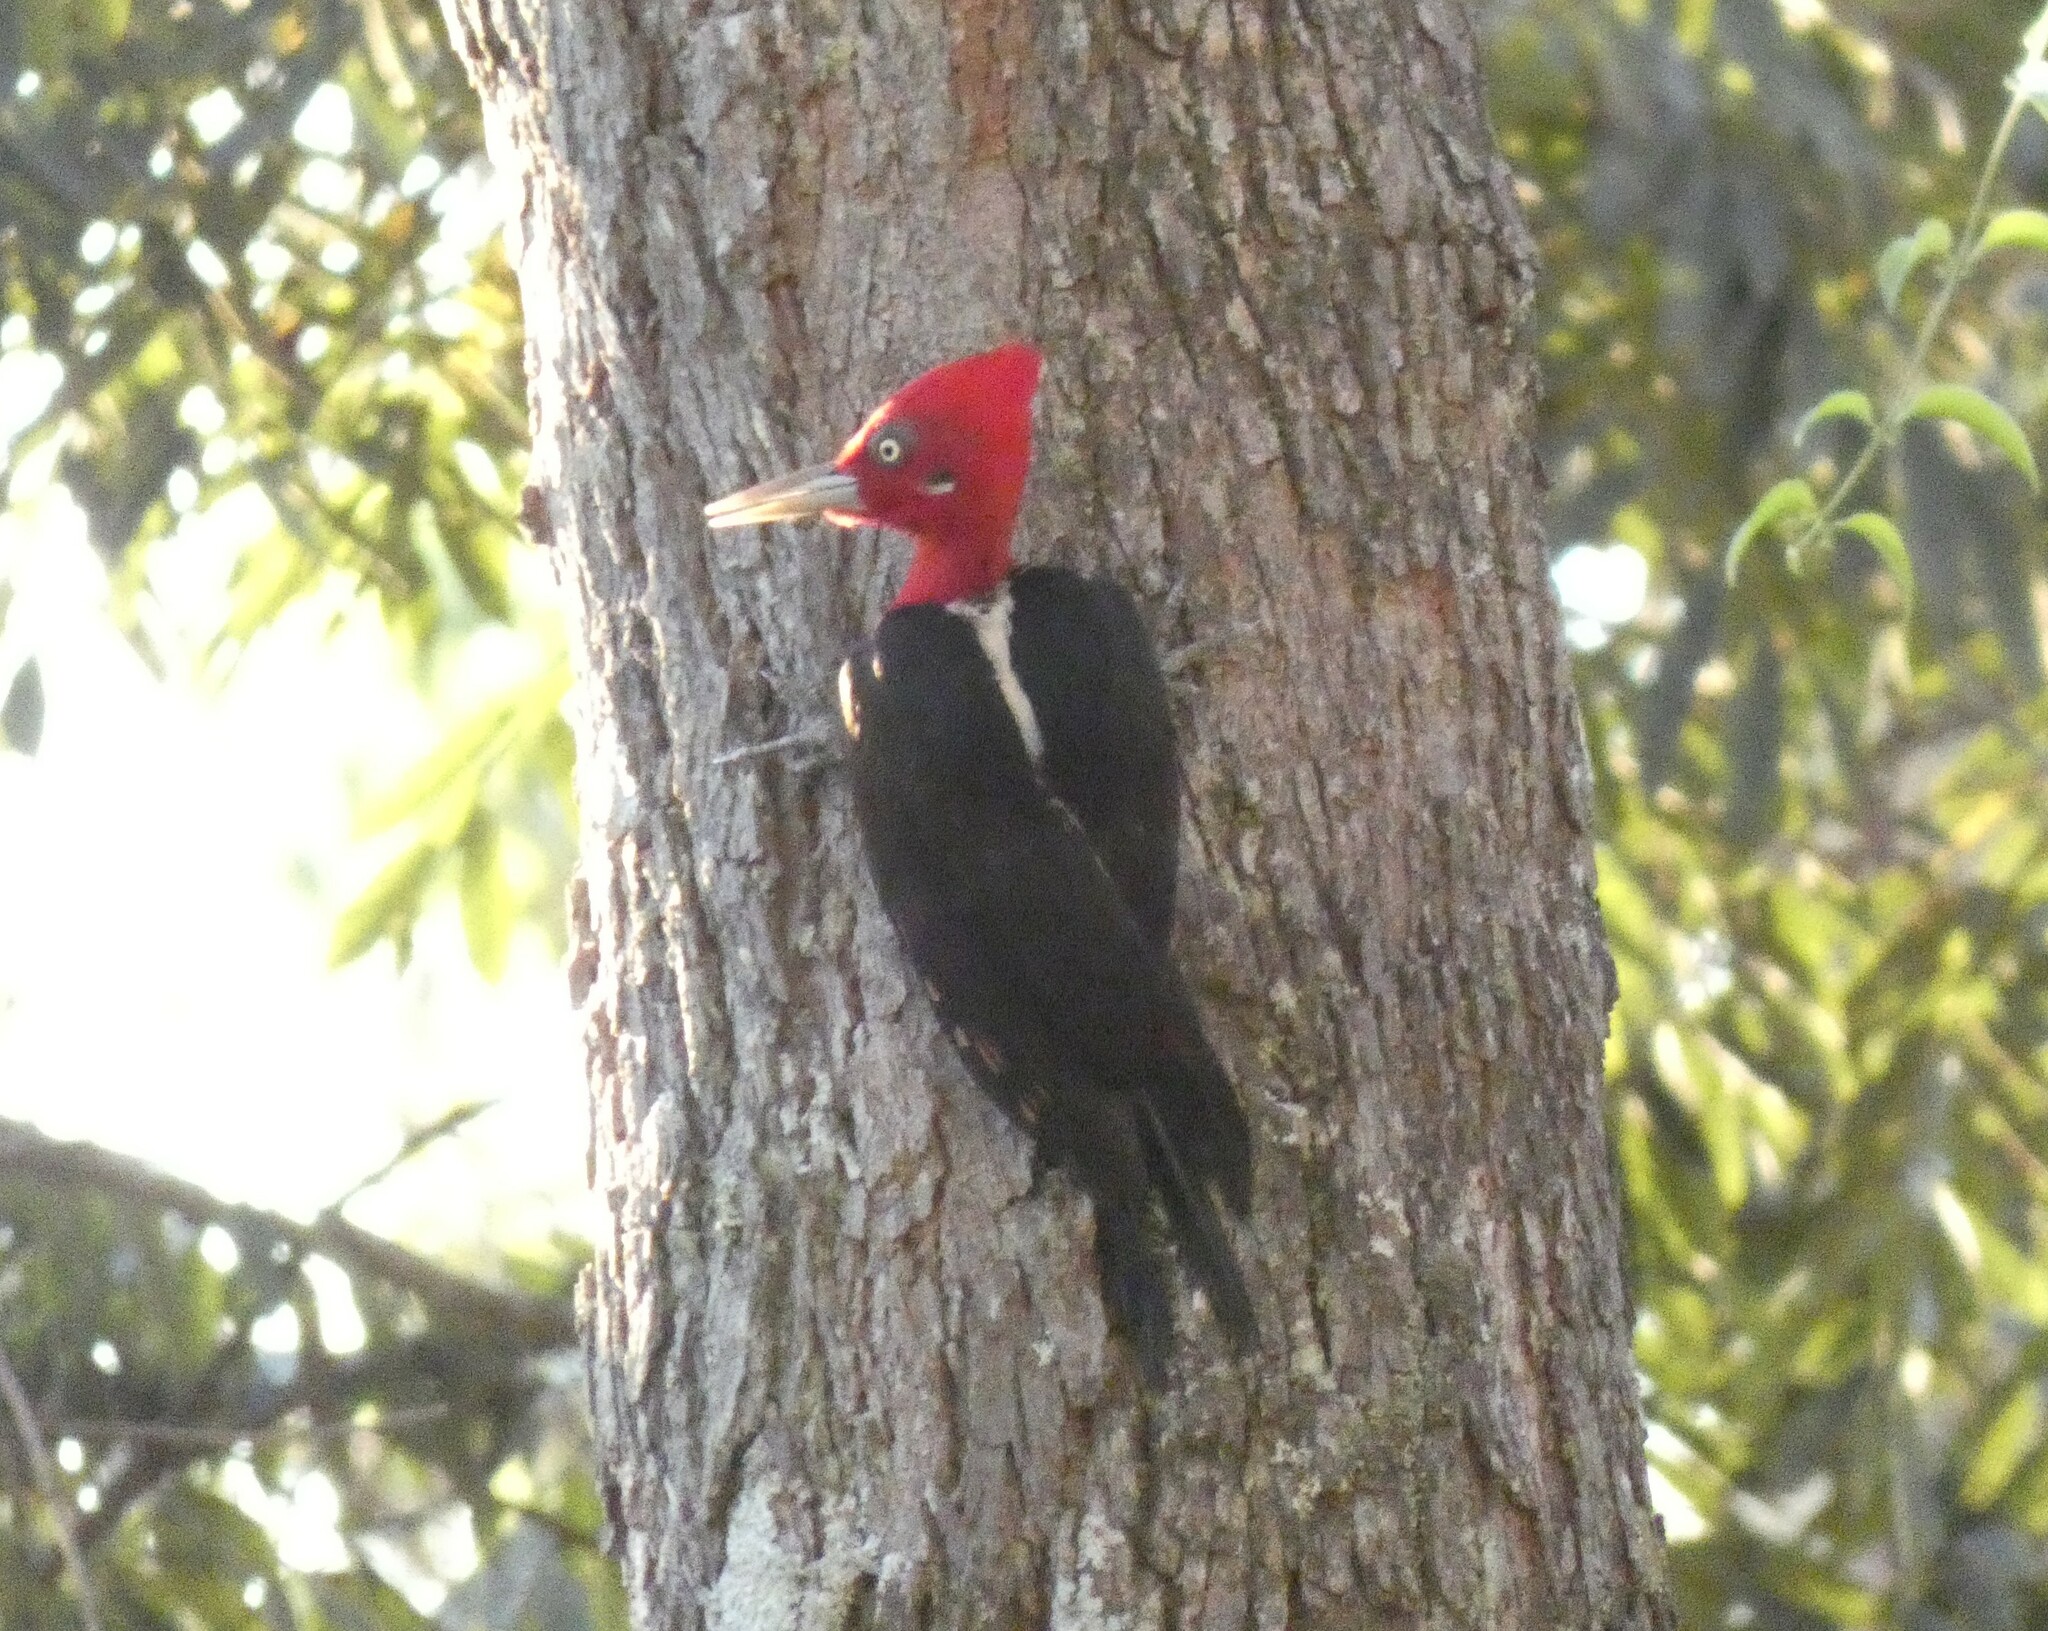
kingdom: Animalia
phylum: Chordata
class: Aves
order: Piciformes
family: Picidae
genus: Campephilus
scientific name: Campephilus robustus
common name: Robust woodpecker
